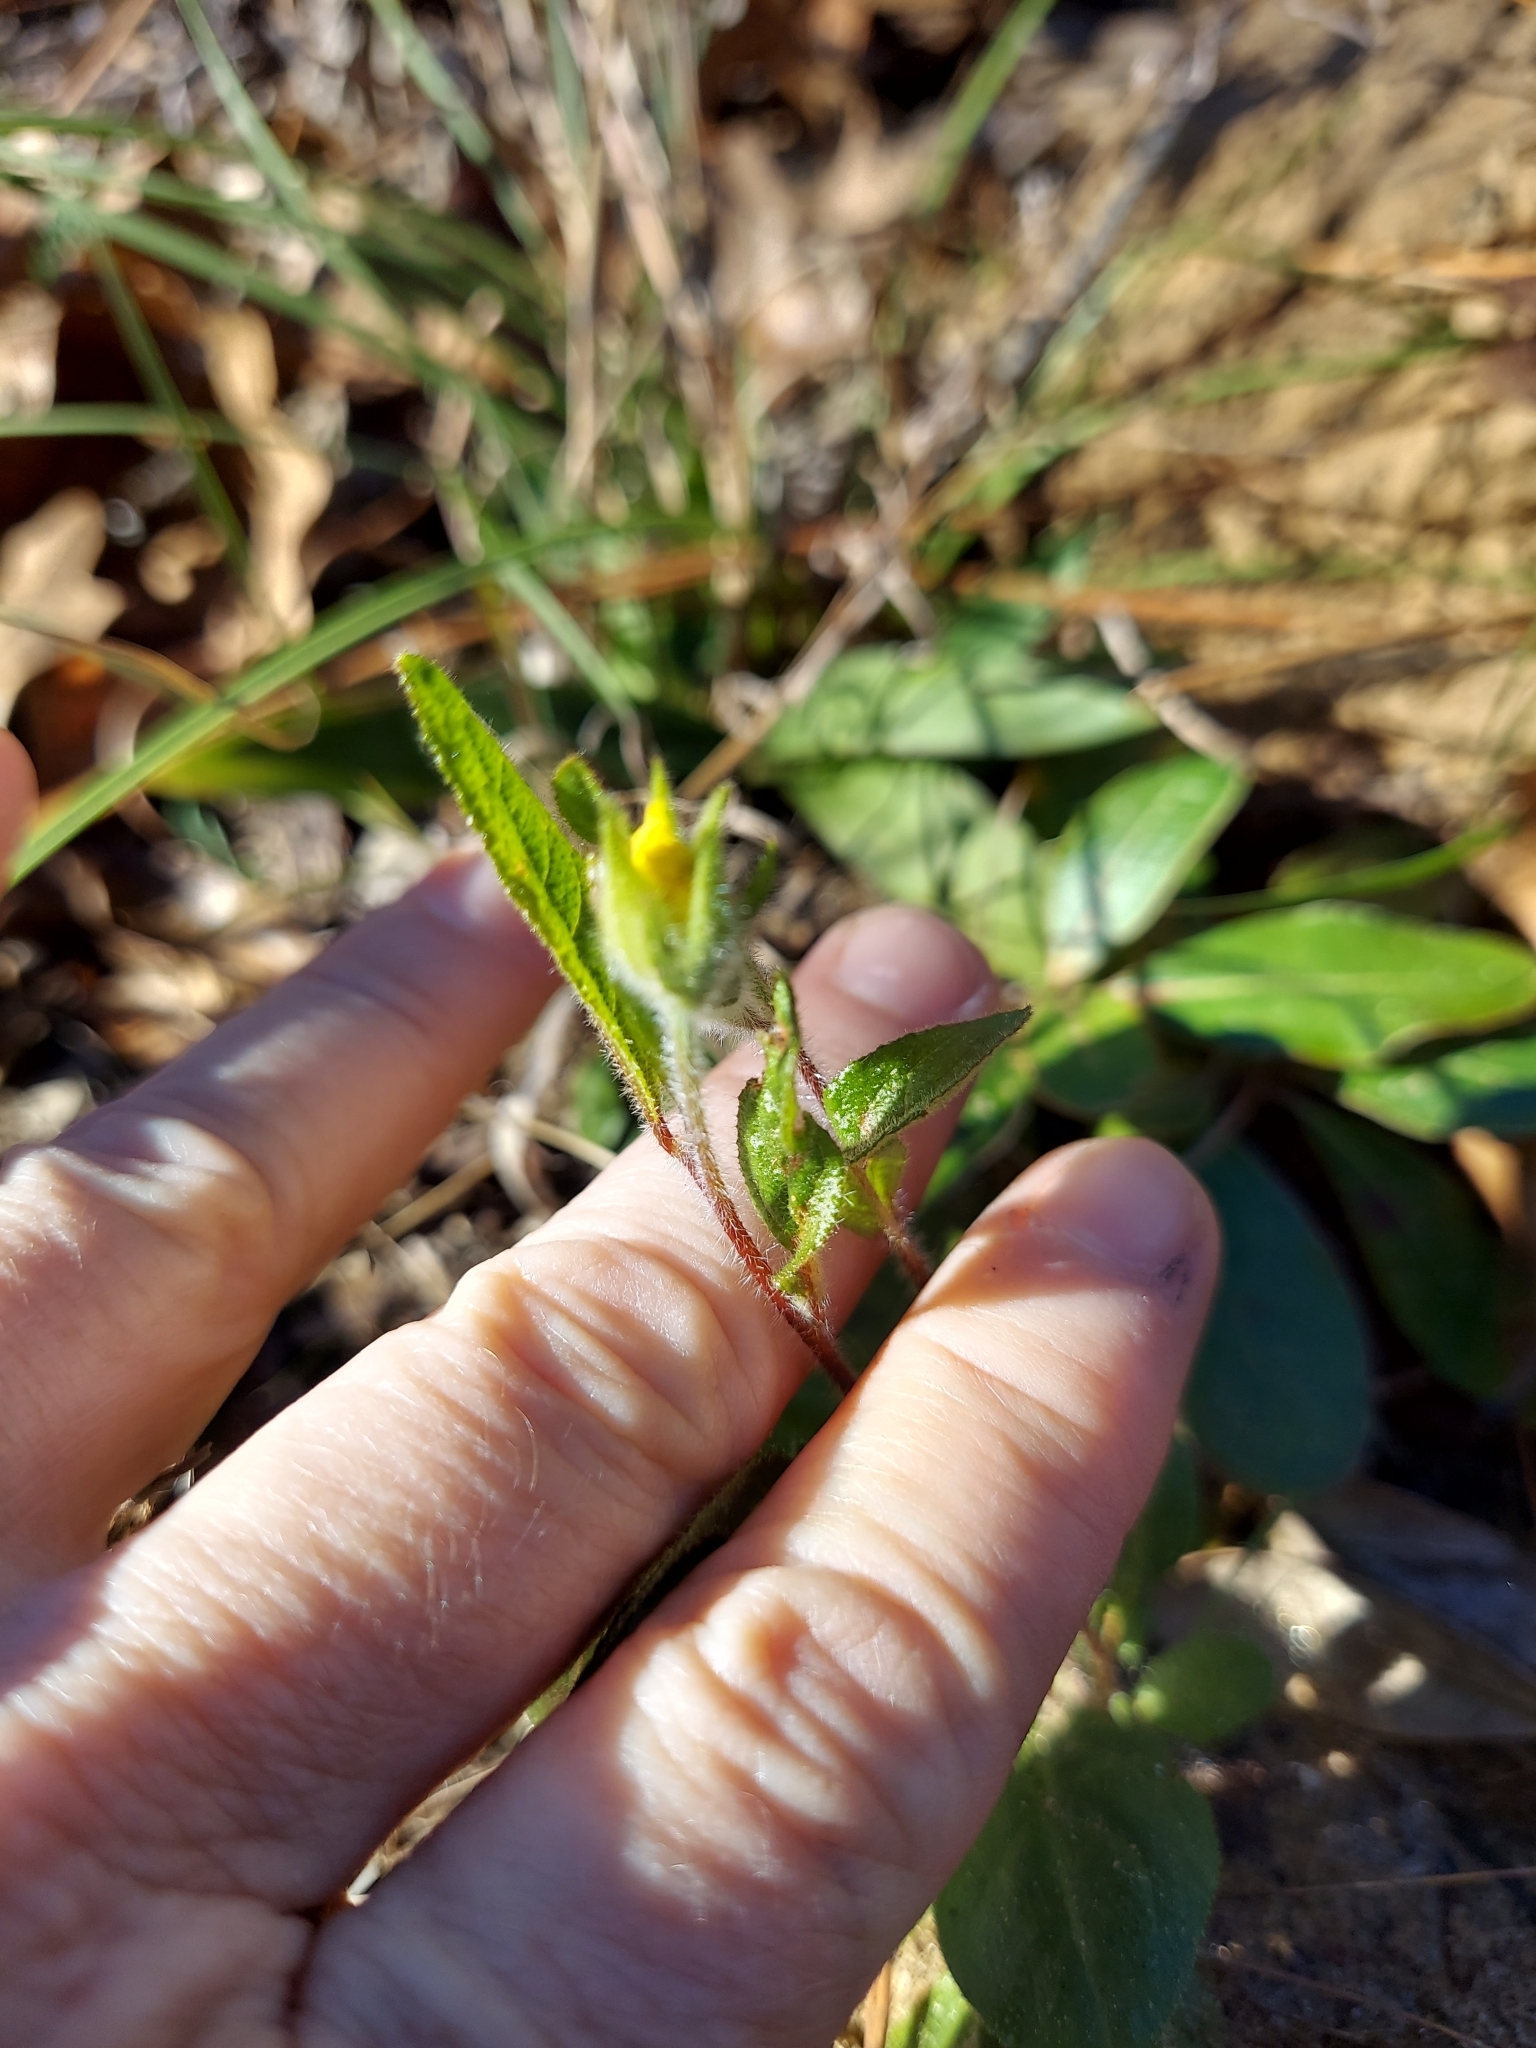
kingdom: Plantae
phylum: Tracheophyta
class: Magnoliopsida
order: Malvales
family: Cistaceae
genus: Crocanthemum
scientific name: Crocanthemum carolinianum
